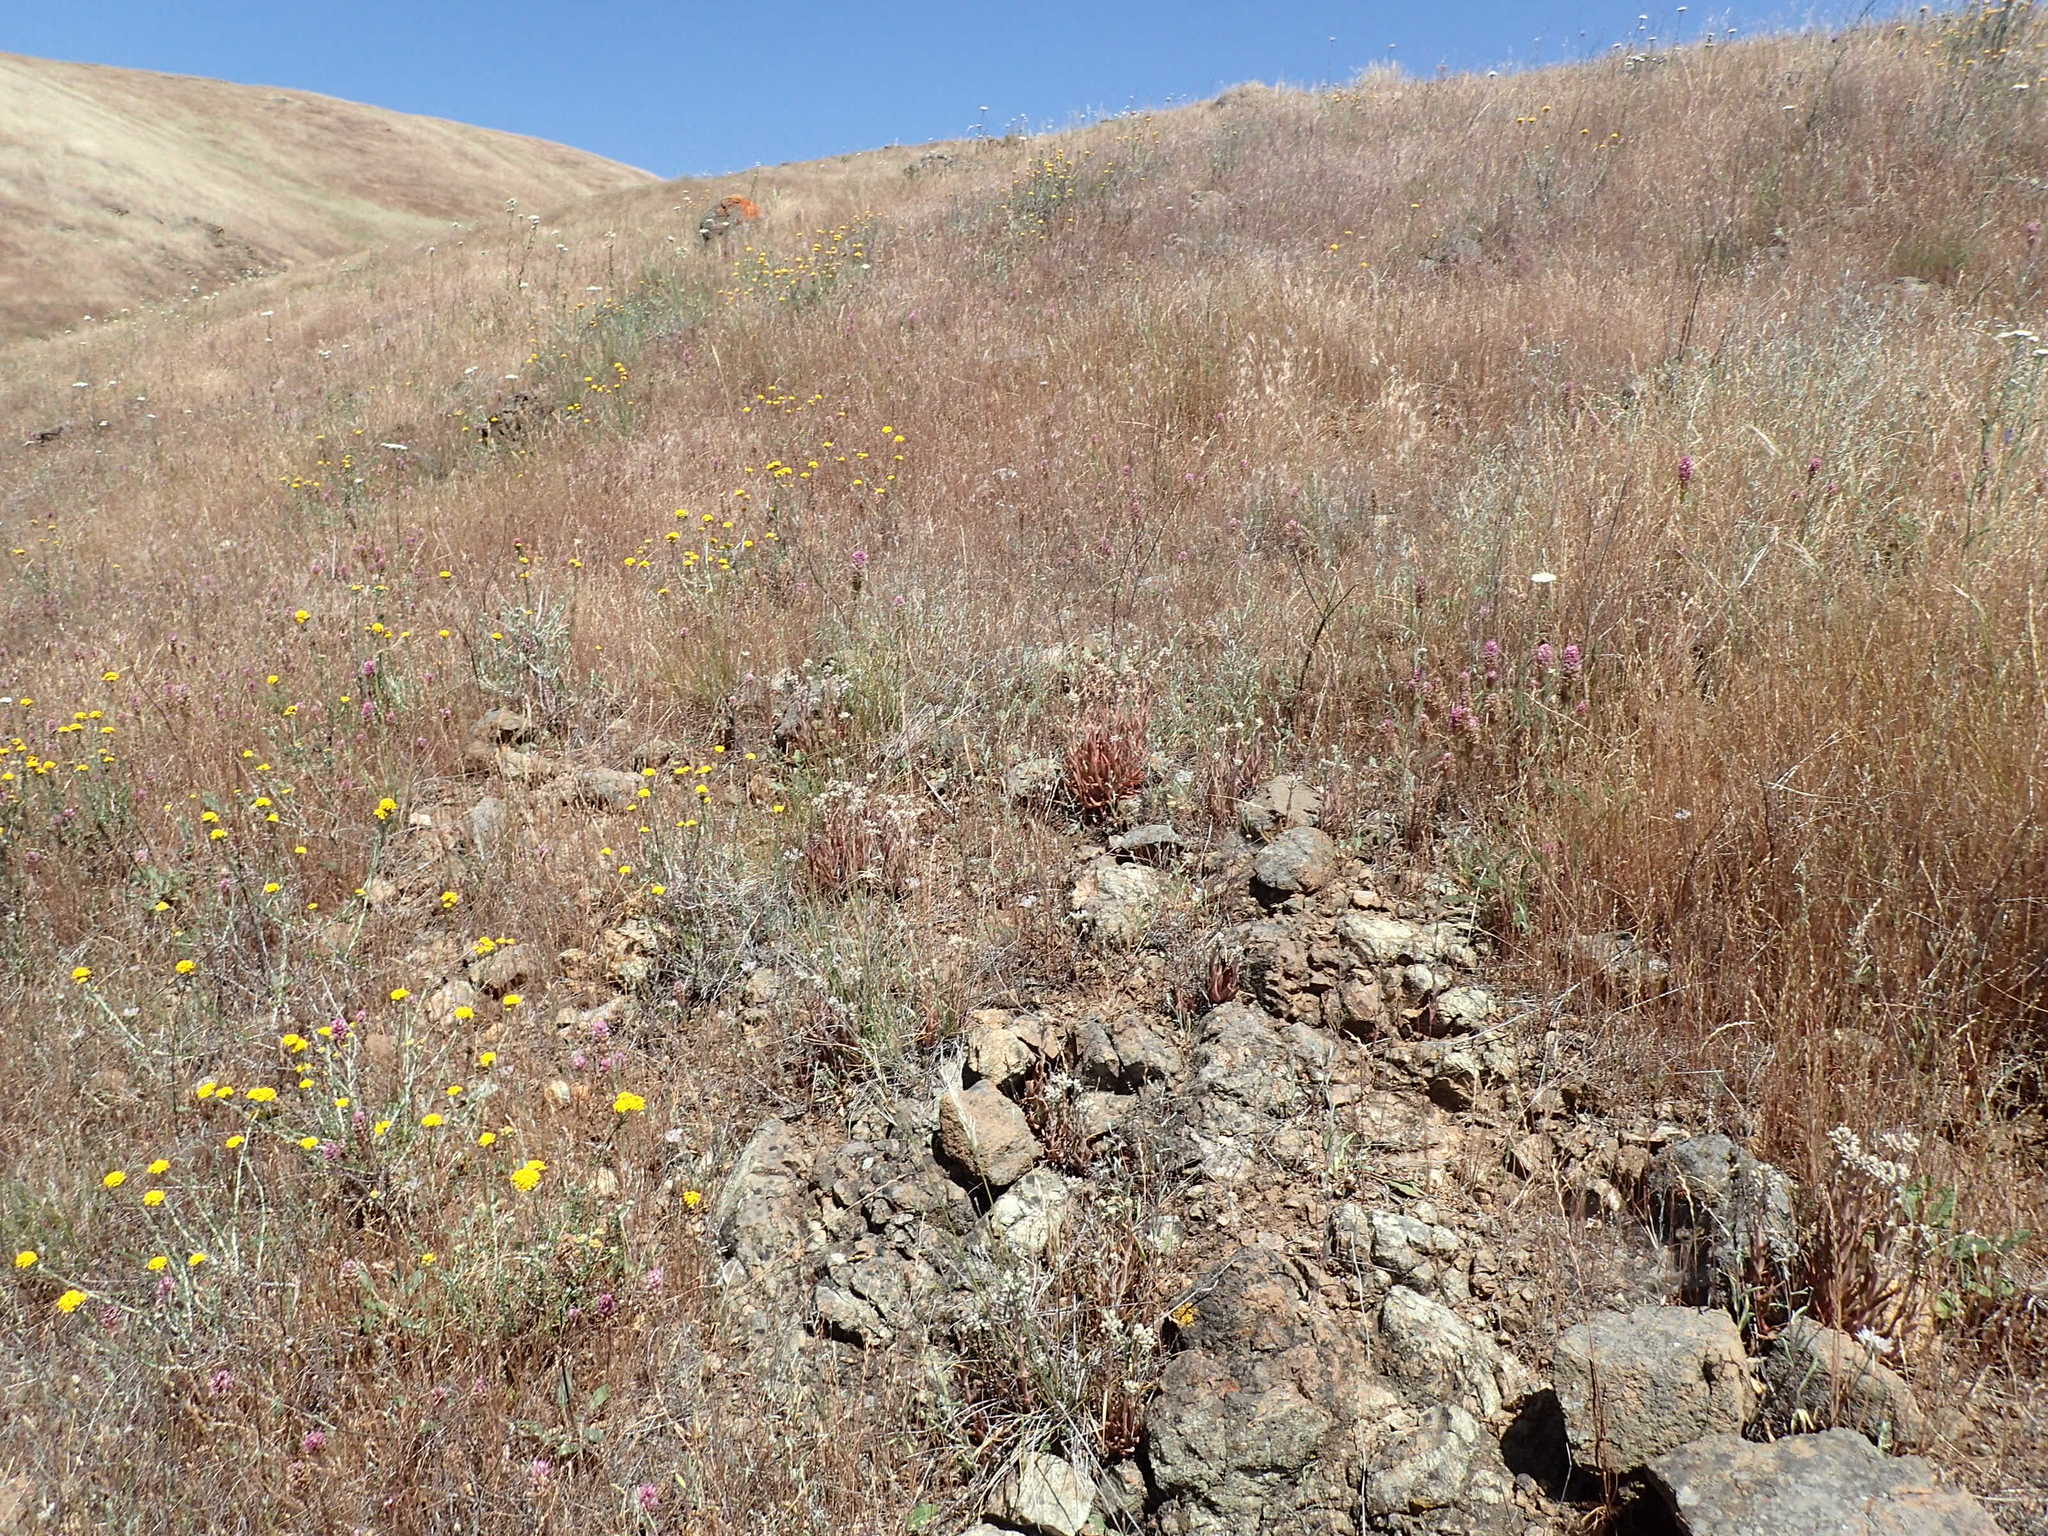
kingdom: Plantae
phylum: Tracheophyta
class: Magnoliopsida
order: Saxifragales
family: Crassulaceae
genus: Dudleya
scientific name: Dudleya abramsii
